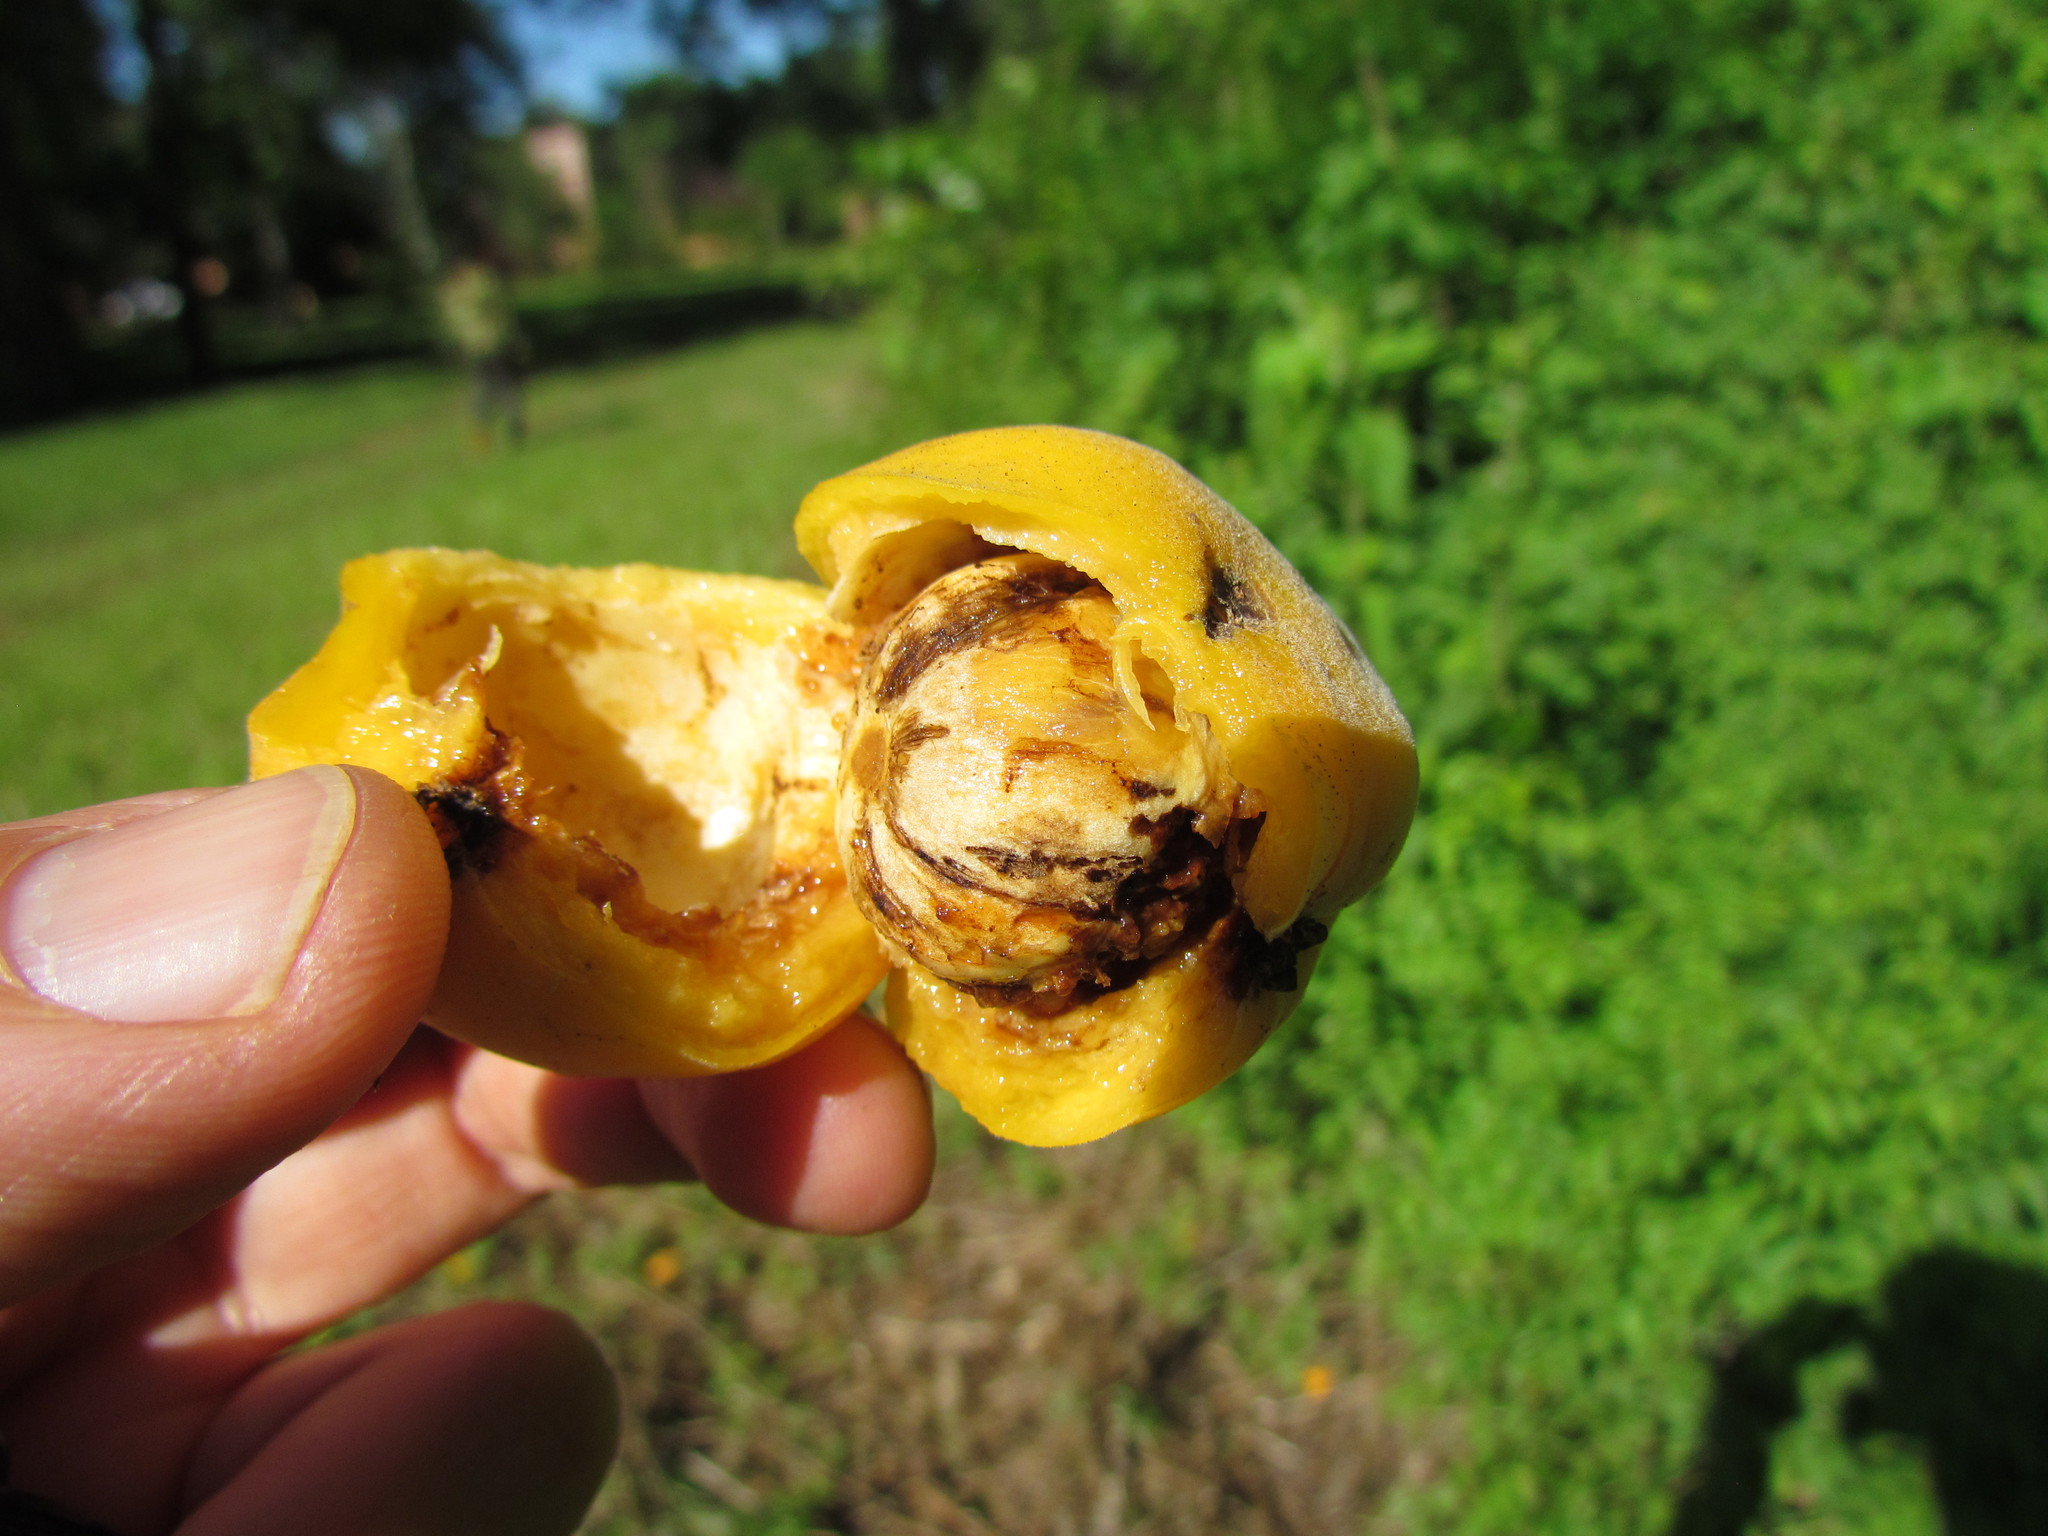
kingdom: Plantae
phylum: Tracheophyta
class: Magnoliopsida
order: Myrtales
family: Myrtaceae
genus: Eugenia
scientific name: Eugenia myrcianthes
